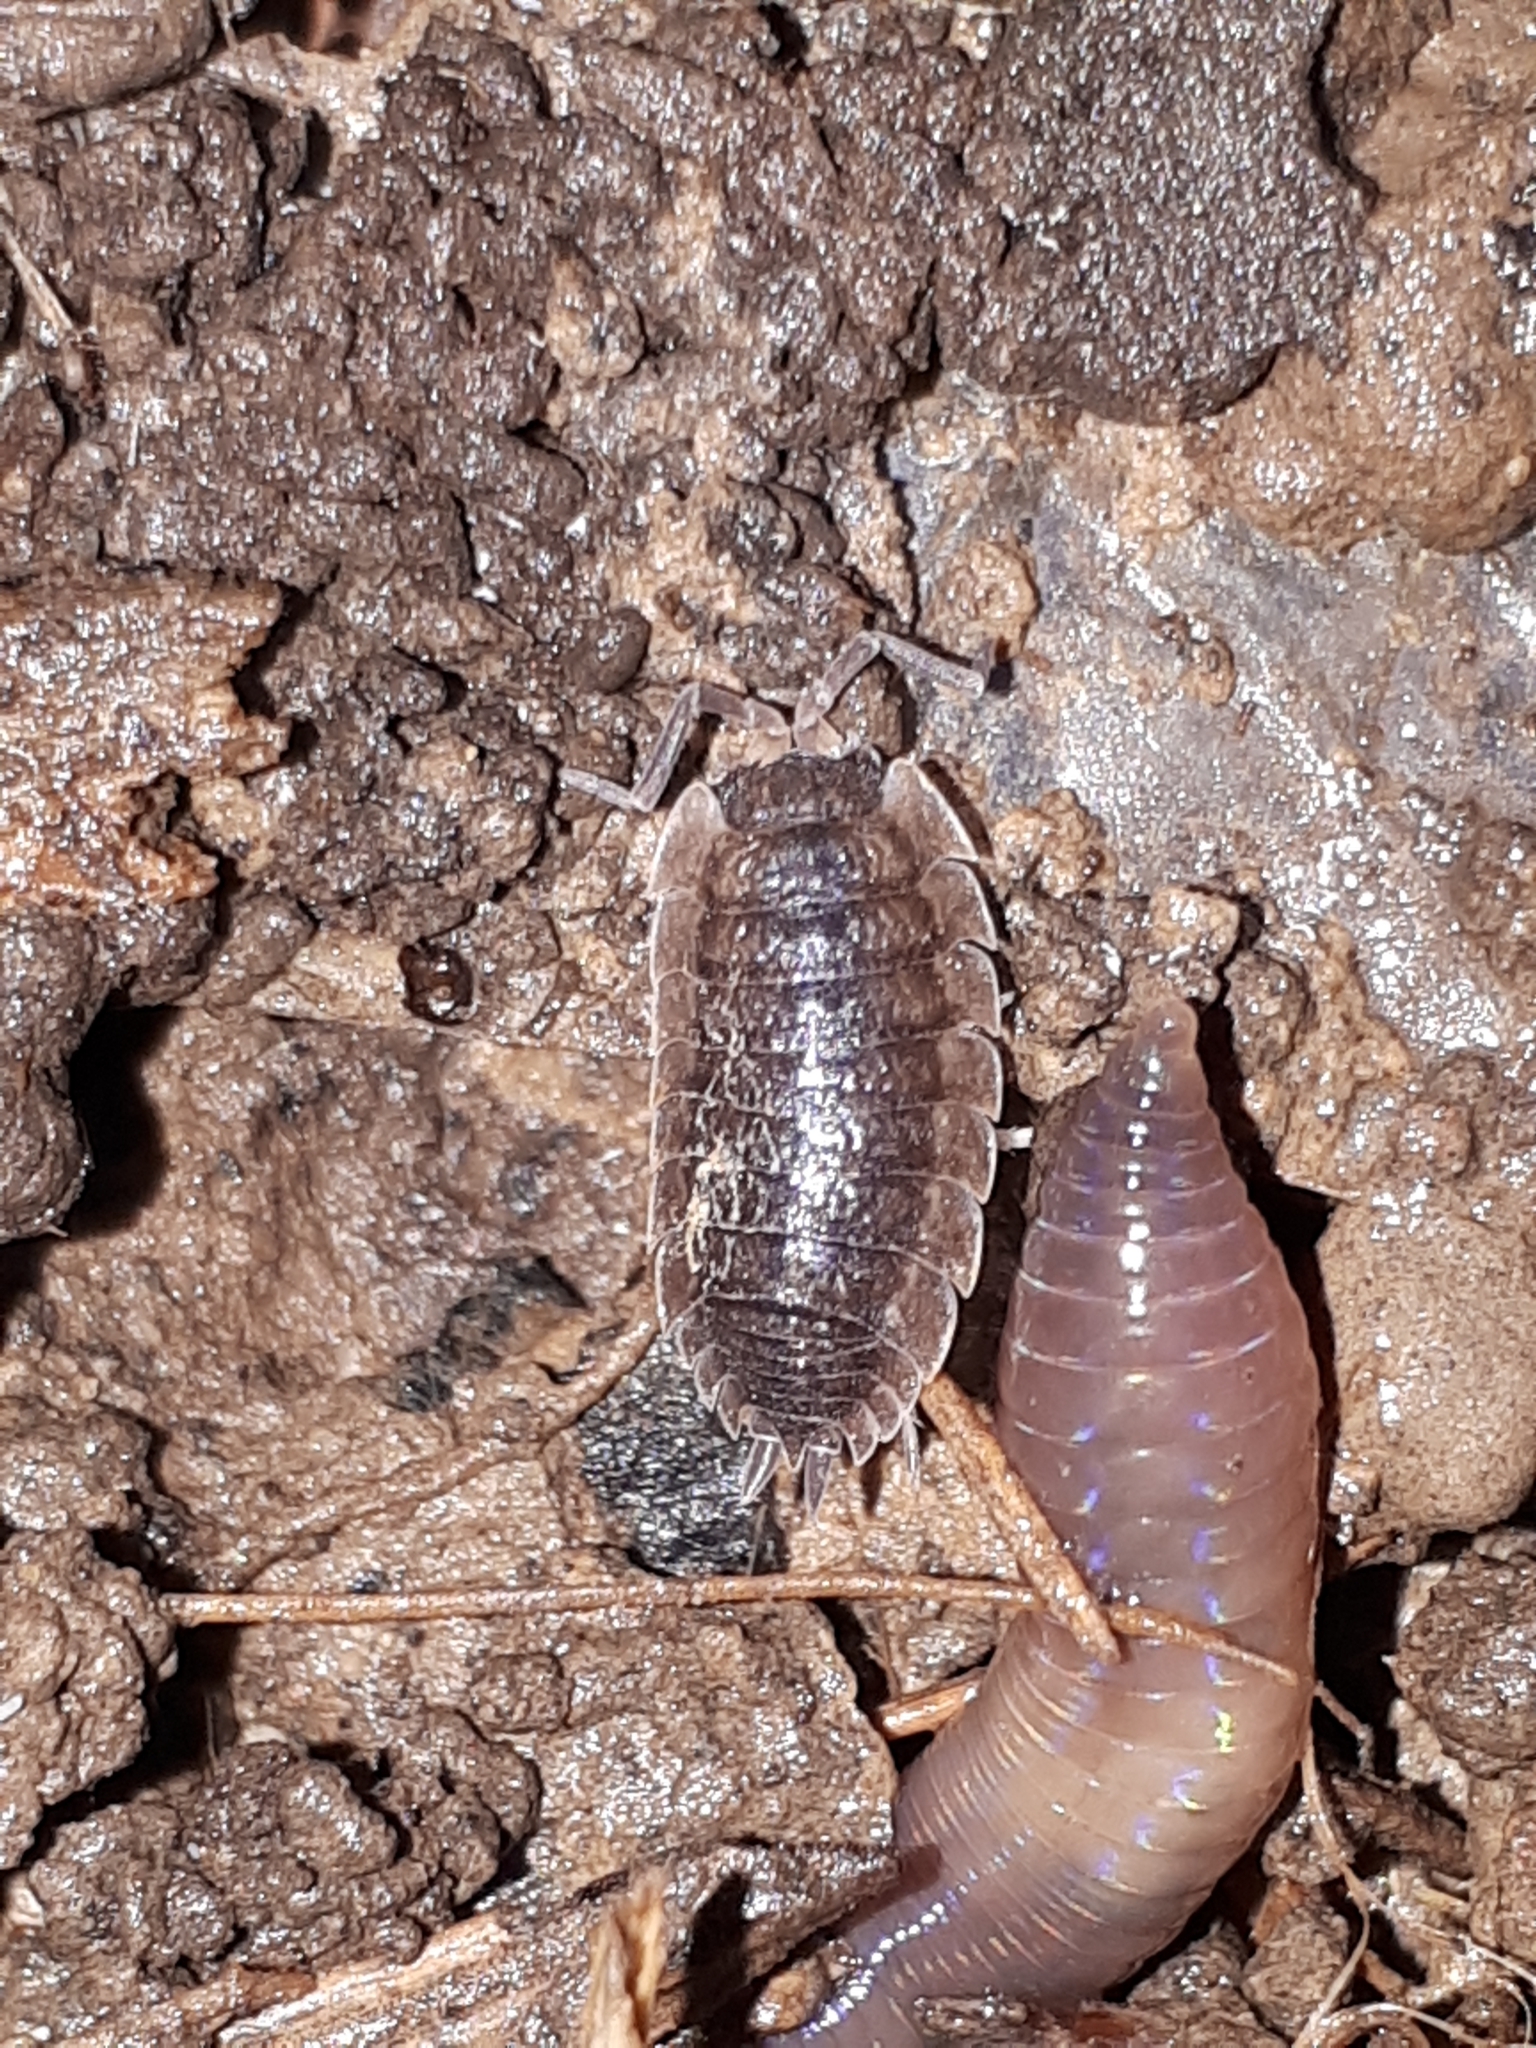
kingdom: Animalia
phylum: Arthropoda
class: Malacostraca
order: Isopoda
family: Porcellionidae
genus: Porcellio
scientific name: Porcellio scaber
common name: Common rough woodlouse
